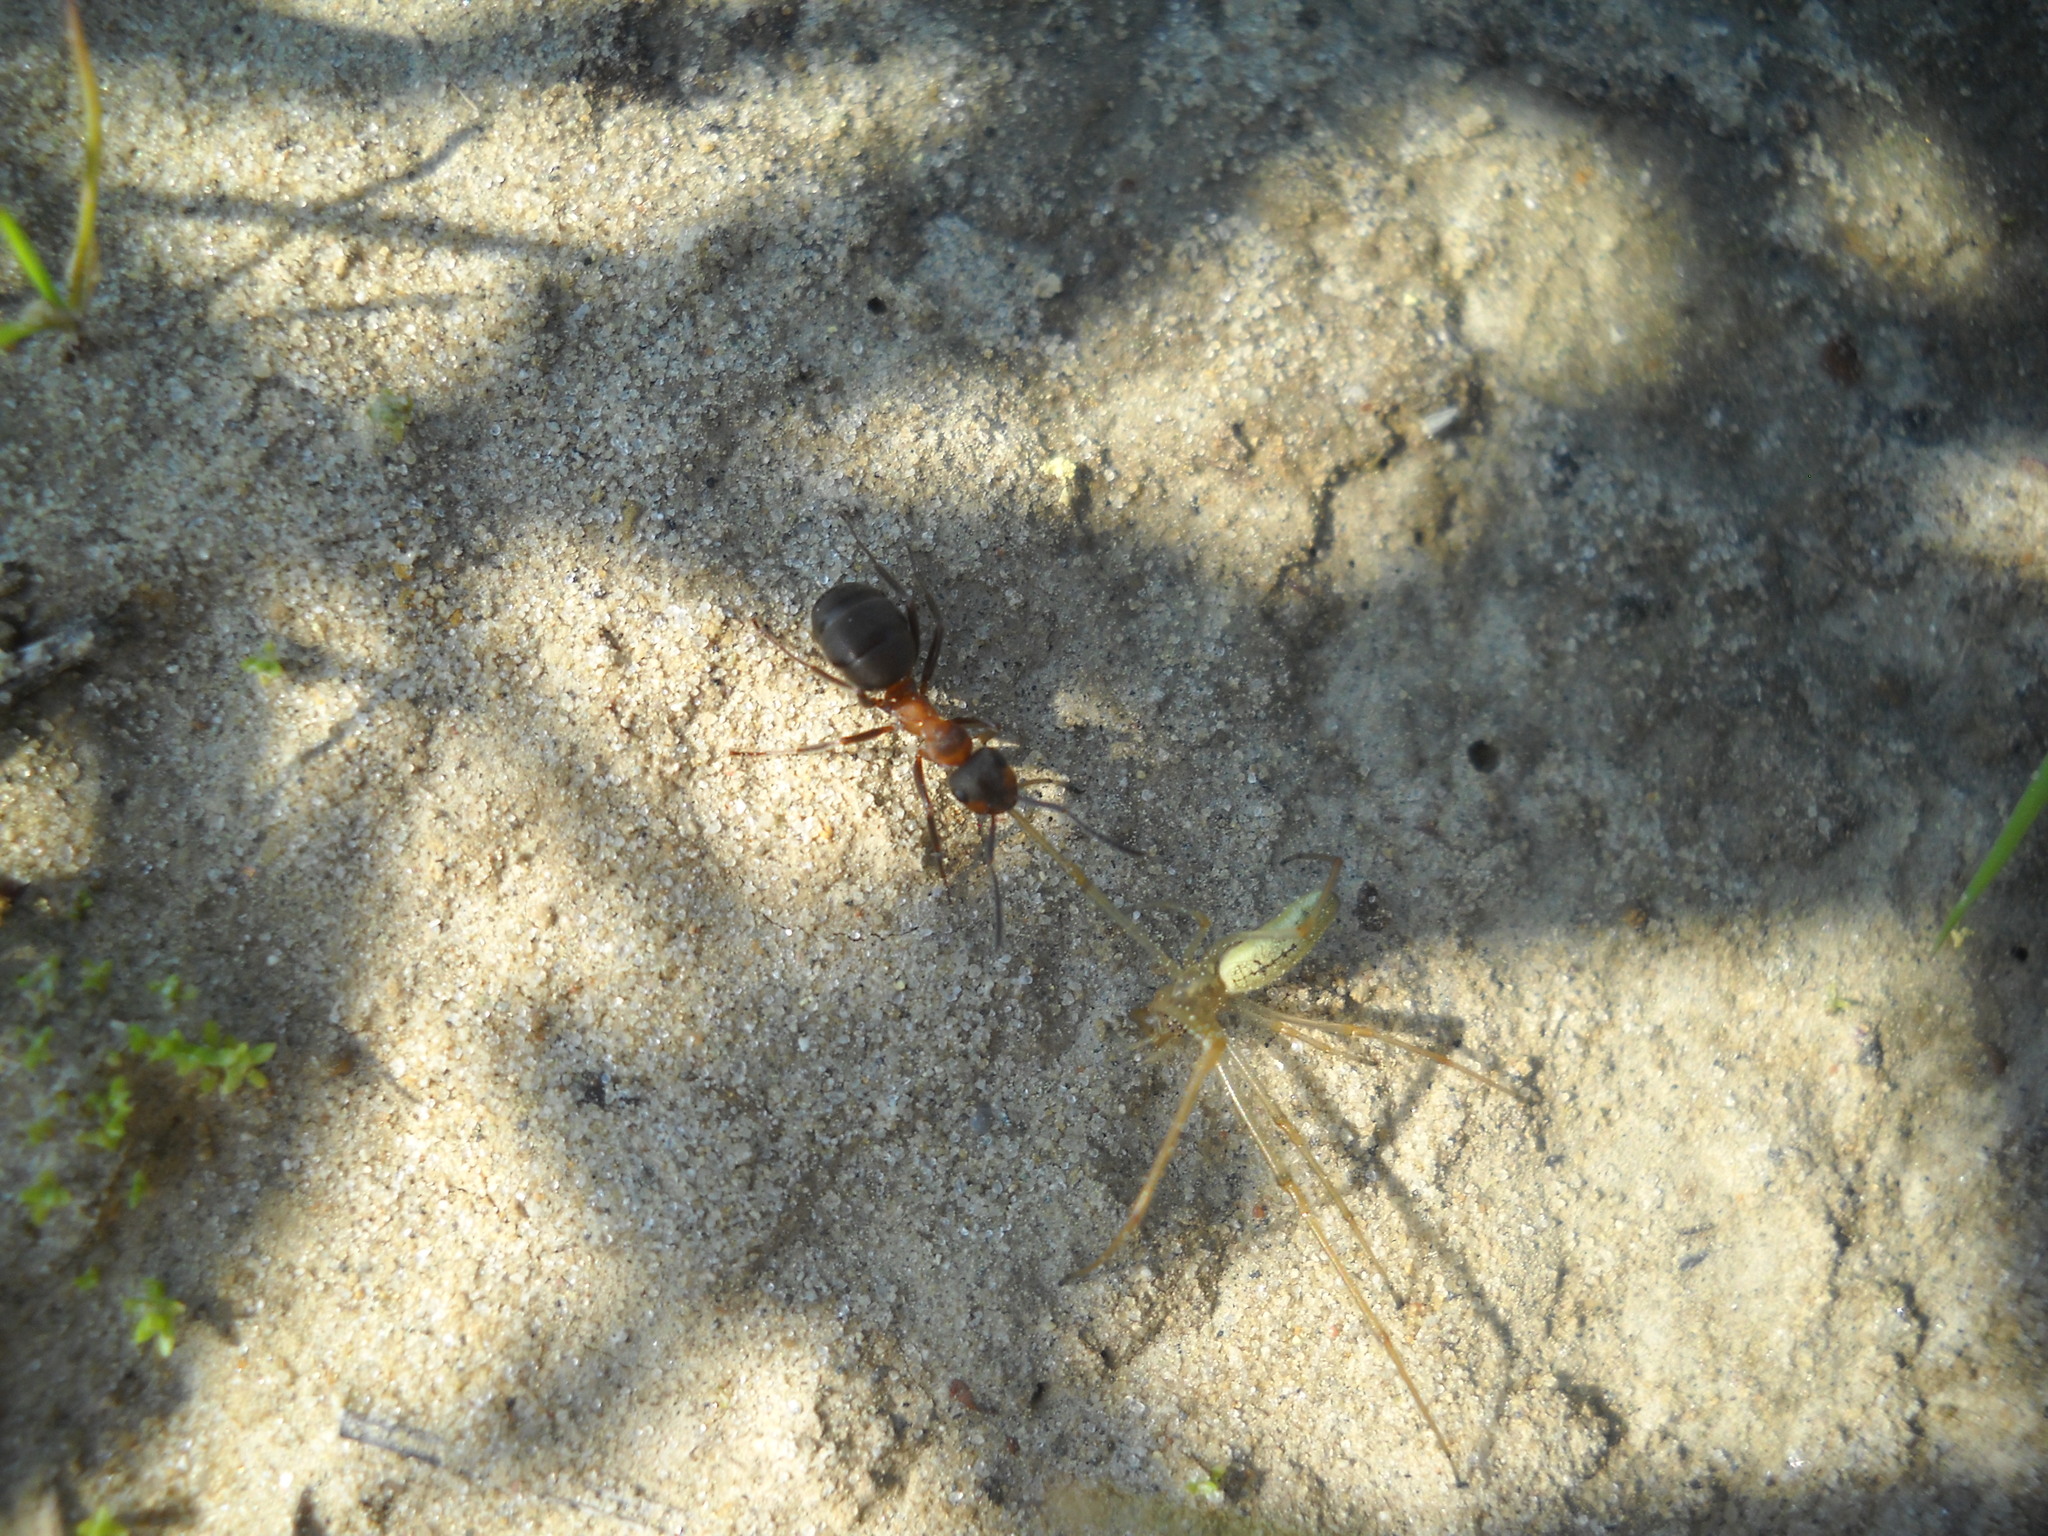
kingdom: Animalia
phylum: Arthropoda
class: Arachnida
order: Araneae
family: Tetragnathidae
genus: Tetragnatha
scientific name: Tetragnatha pinicola
